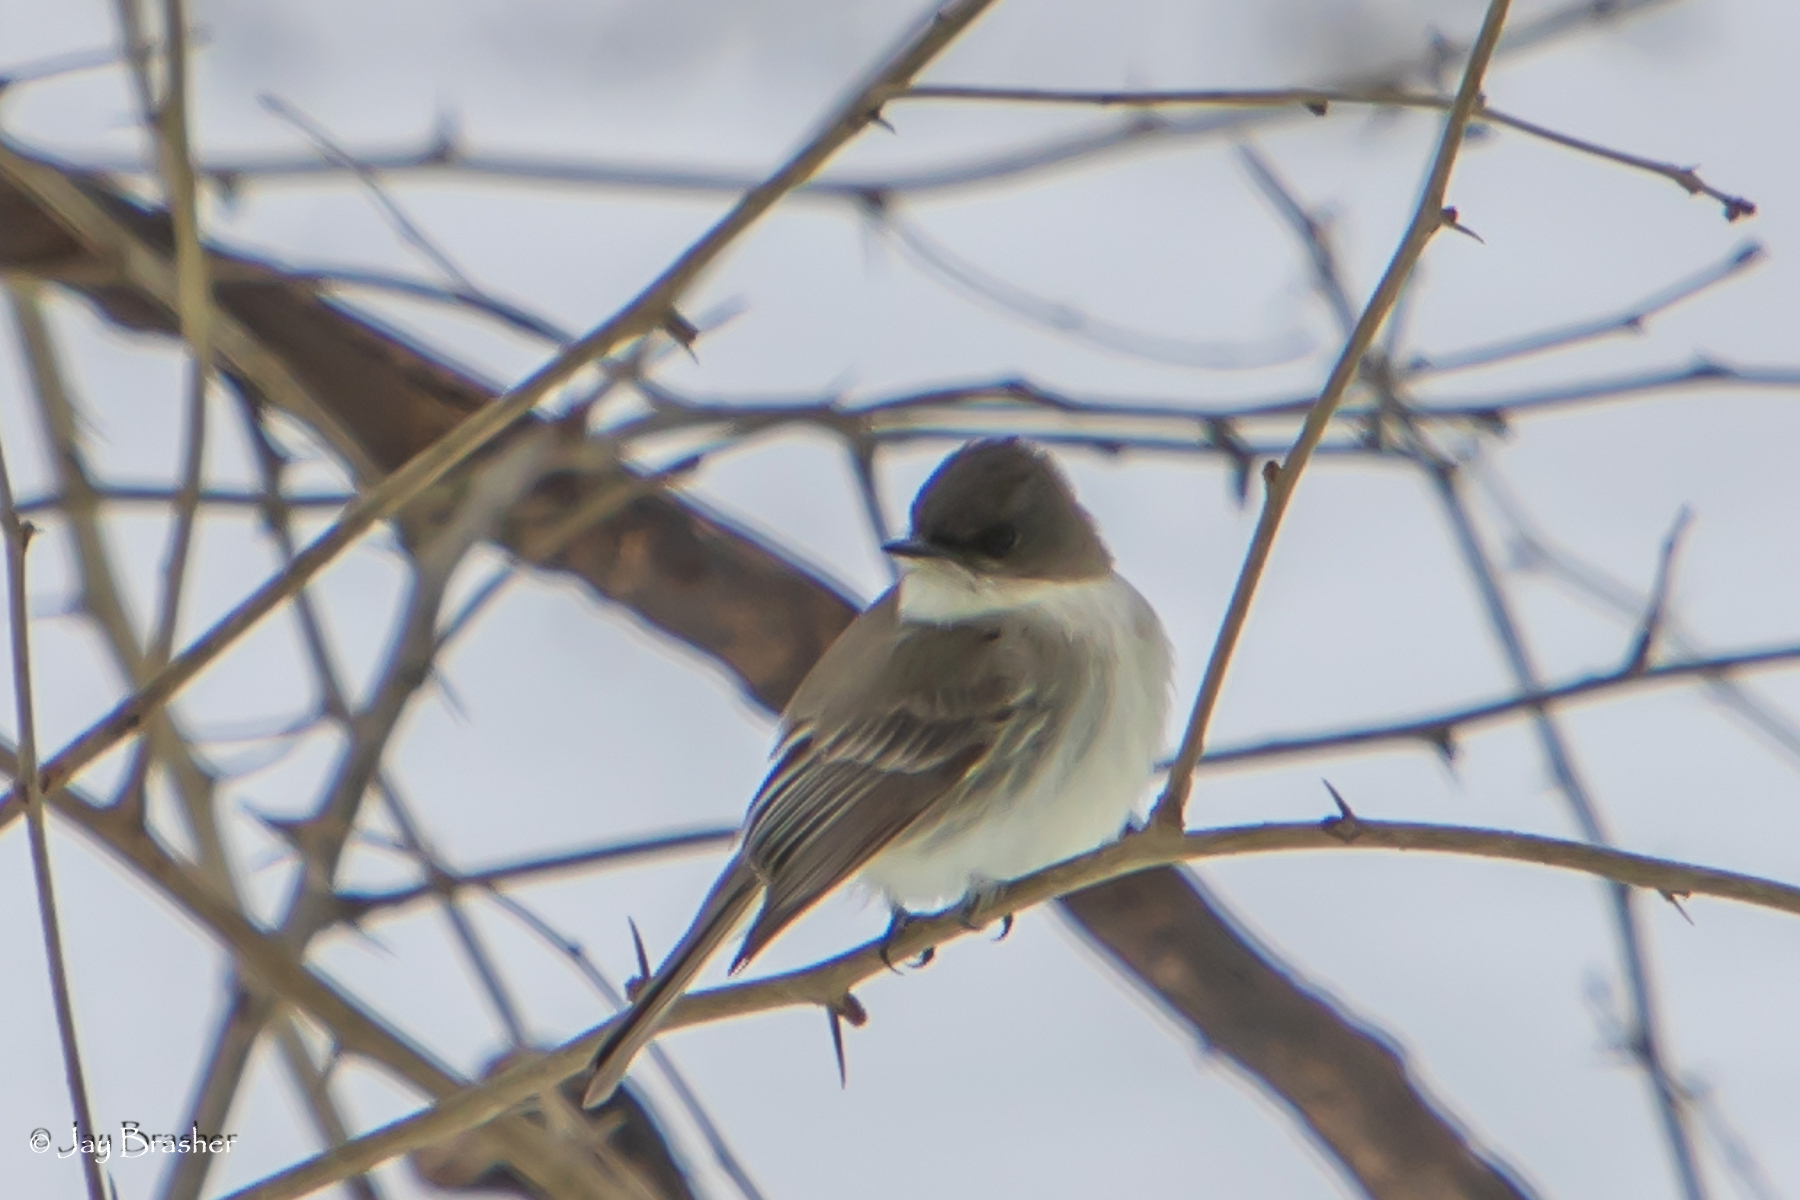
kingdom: Animalia
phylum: Chordata
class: Aves
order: Passeriformes
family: Tyrannidae
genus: Sayornis
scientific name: Sayornis phoebe
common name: Eastern phoebe
